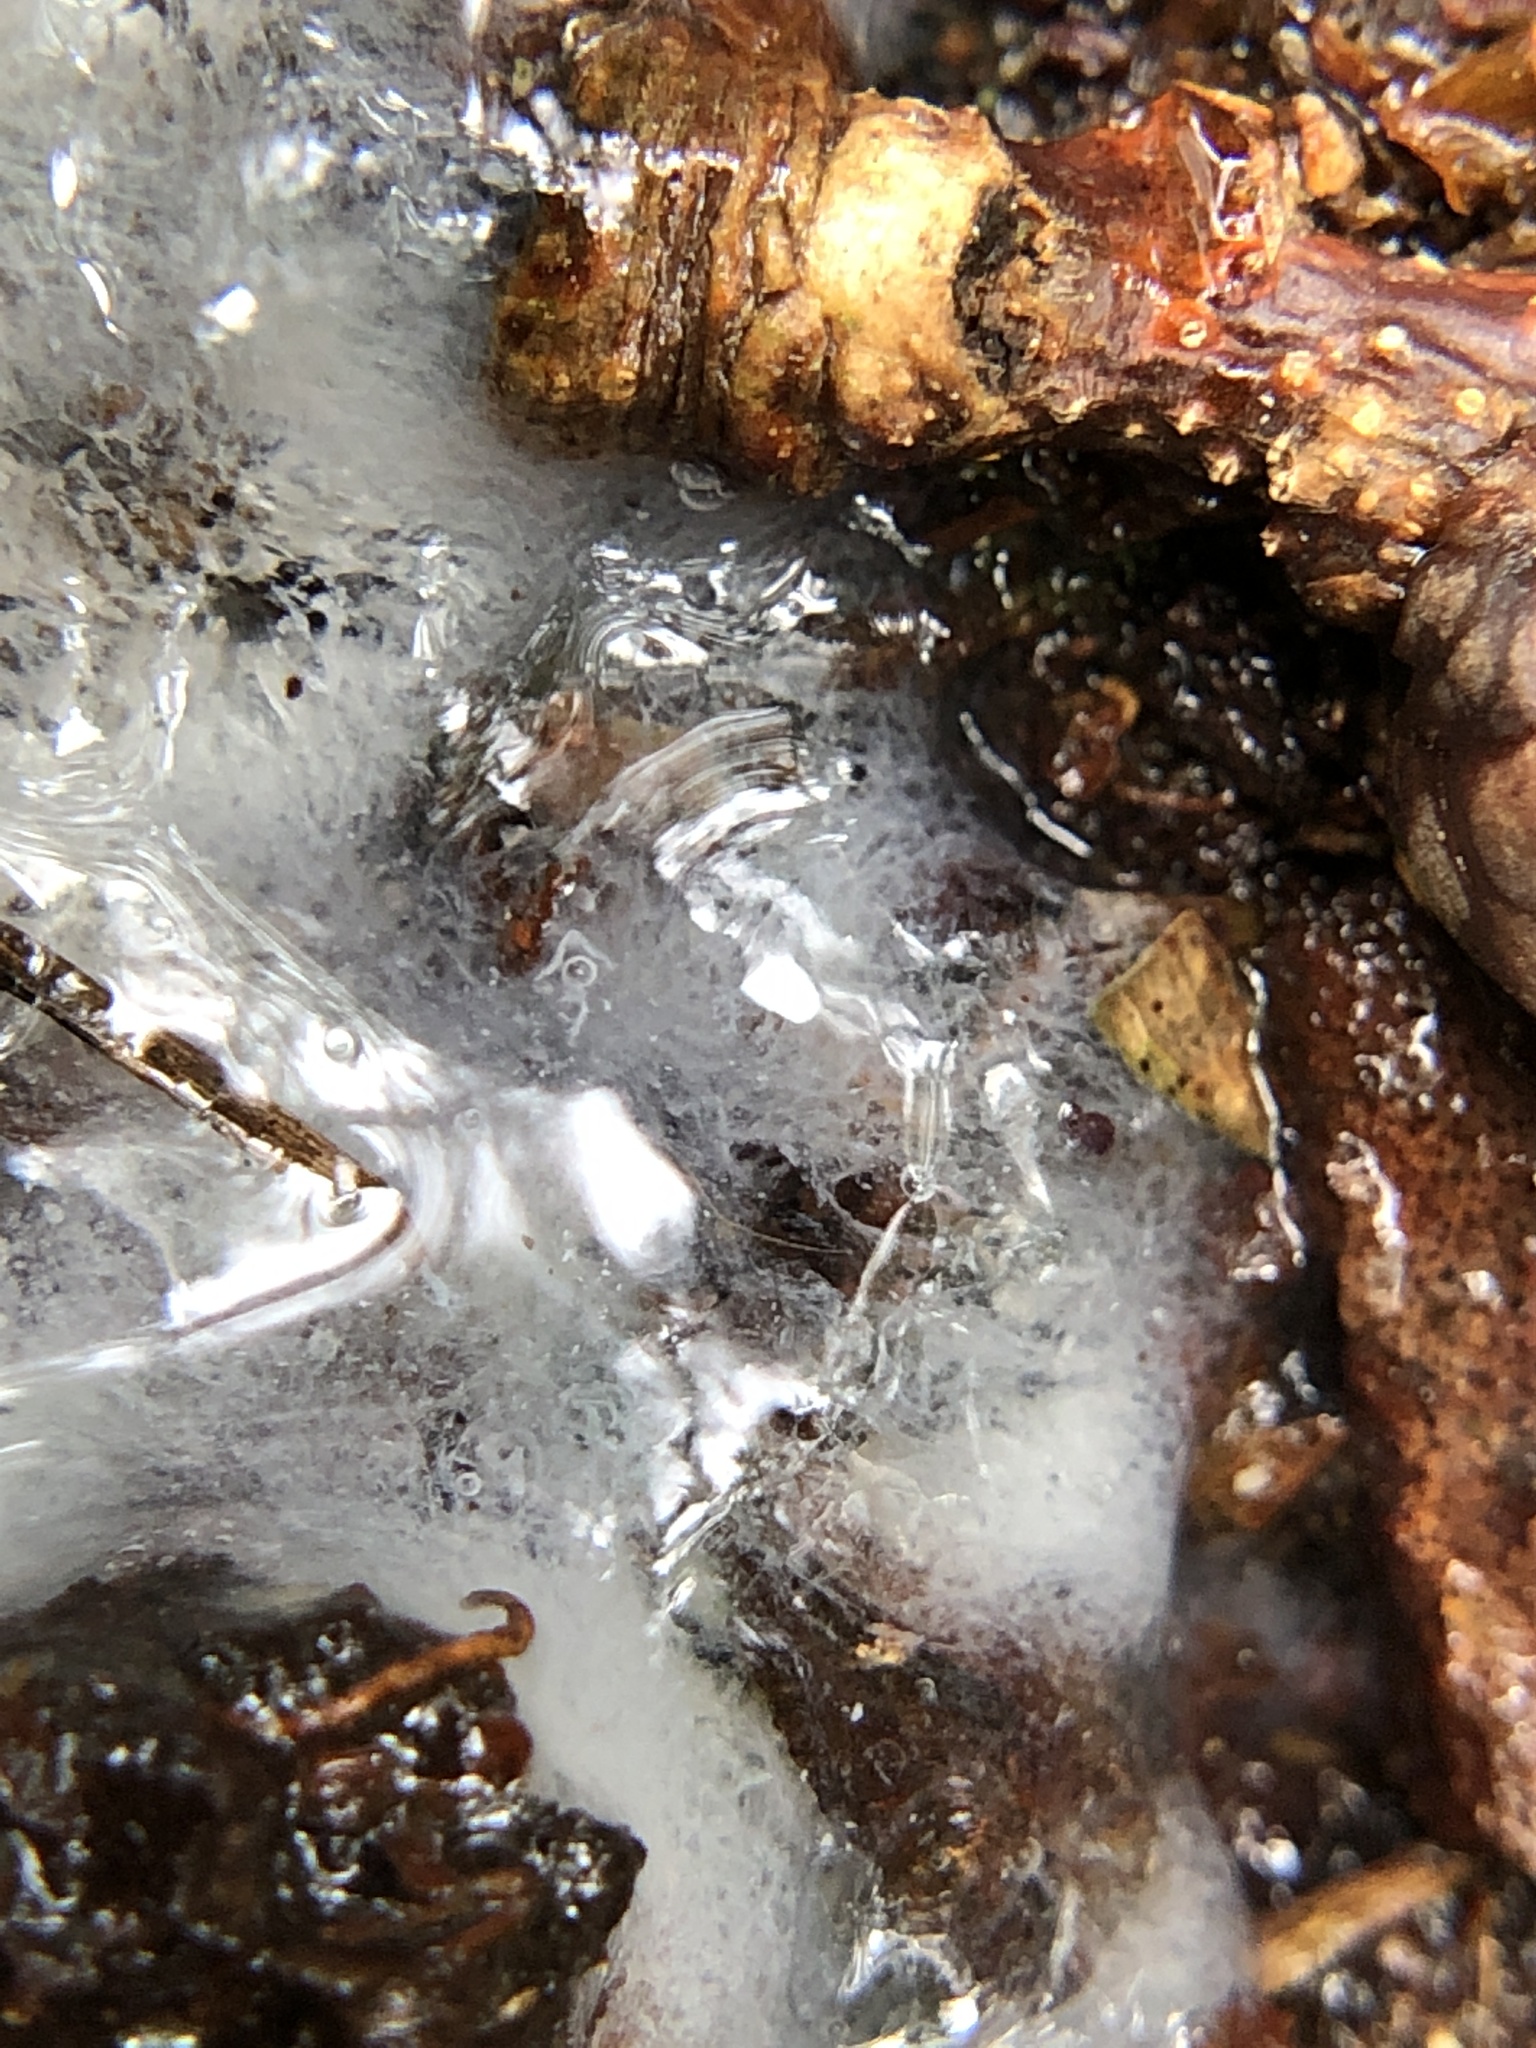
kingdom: Protozoa
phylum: Mycetozoa
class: Protosteliomycetes
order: Ceratiomyxales
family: Ceratiomyxaceae
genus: Ceratiomyxa
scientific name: Ceratiomyxa fruticulosa
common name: Honeycomb coral slime mold
